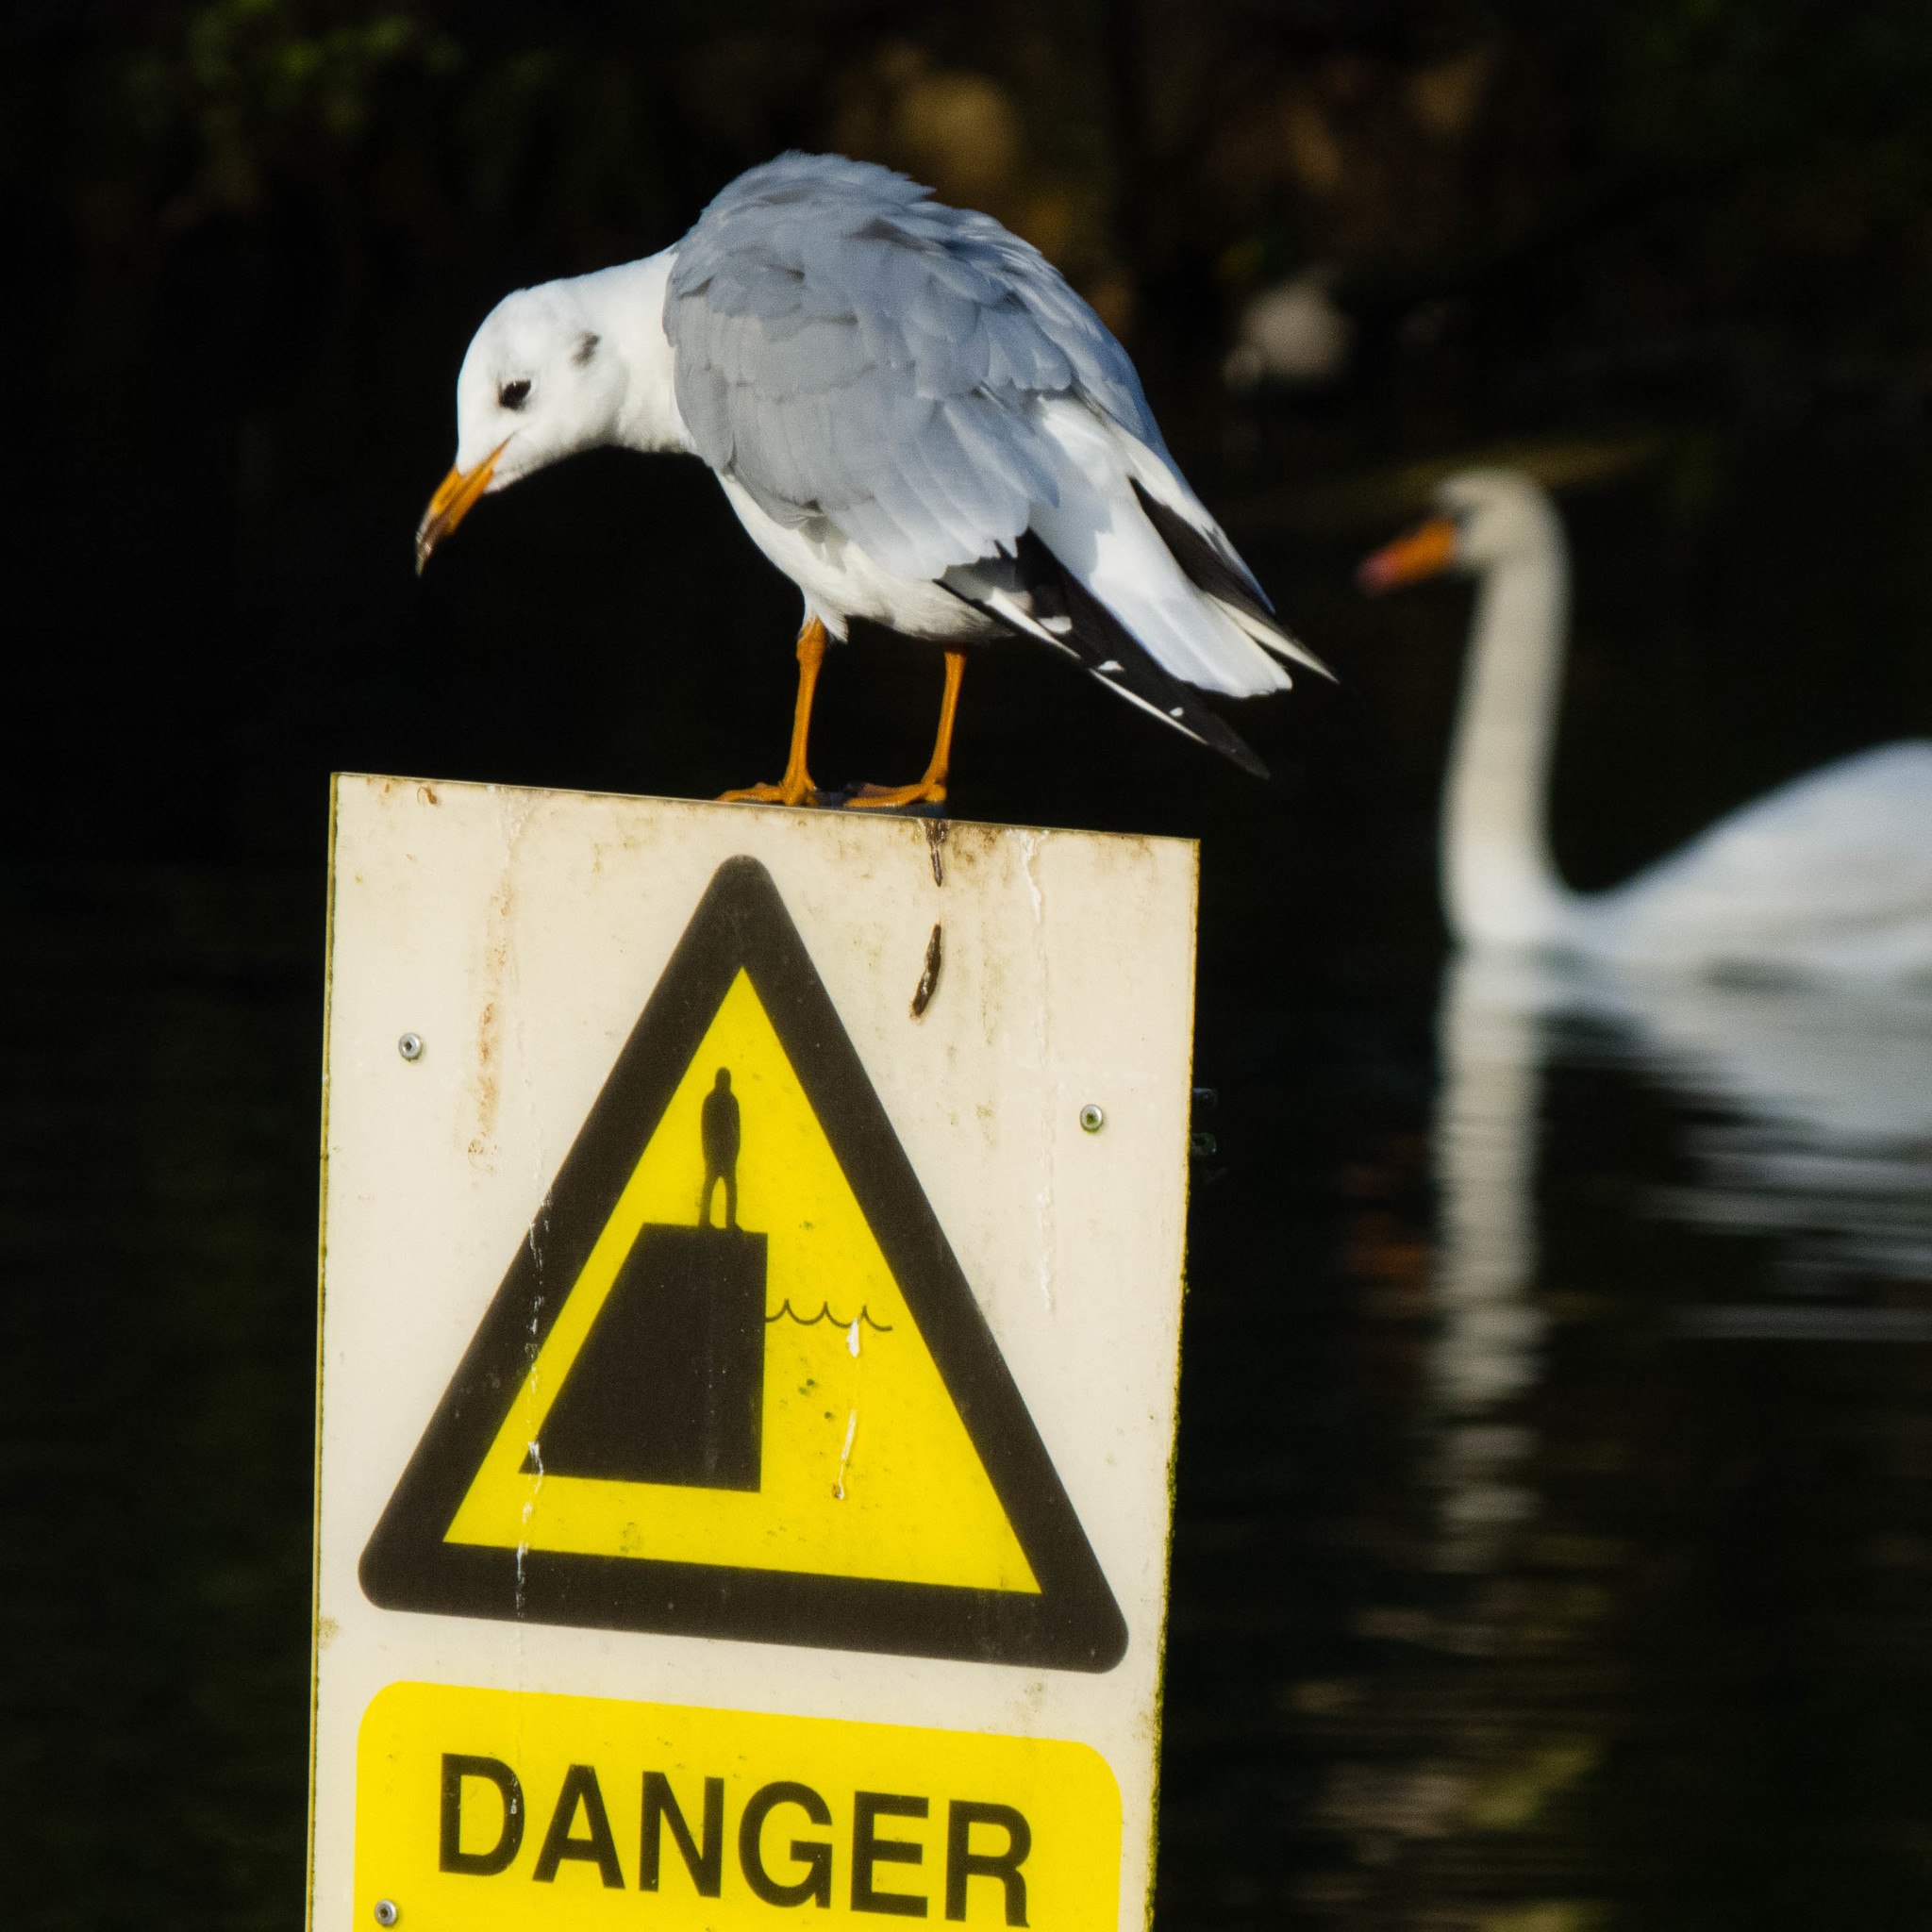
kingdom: Animalia
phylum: Chordata
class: Aves
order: Charadriiformes
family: Laridae
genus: Chroicocephalus
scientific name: Chroicocephalus ridibundus
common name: Black-headed gull
